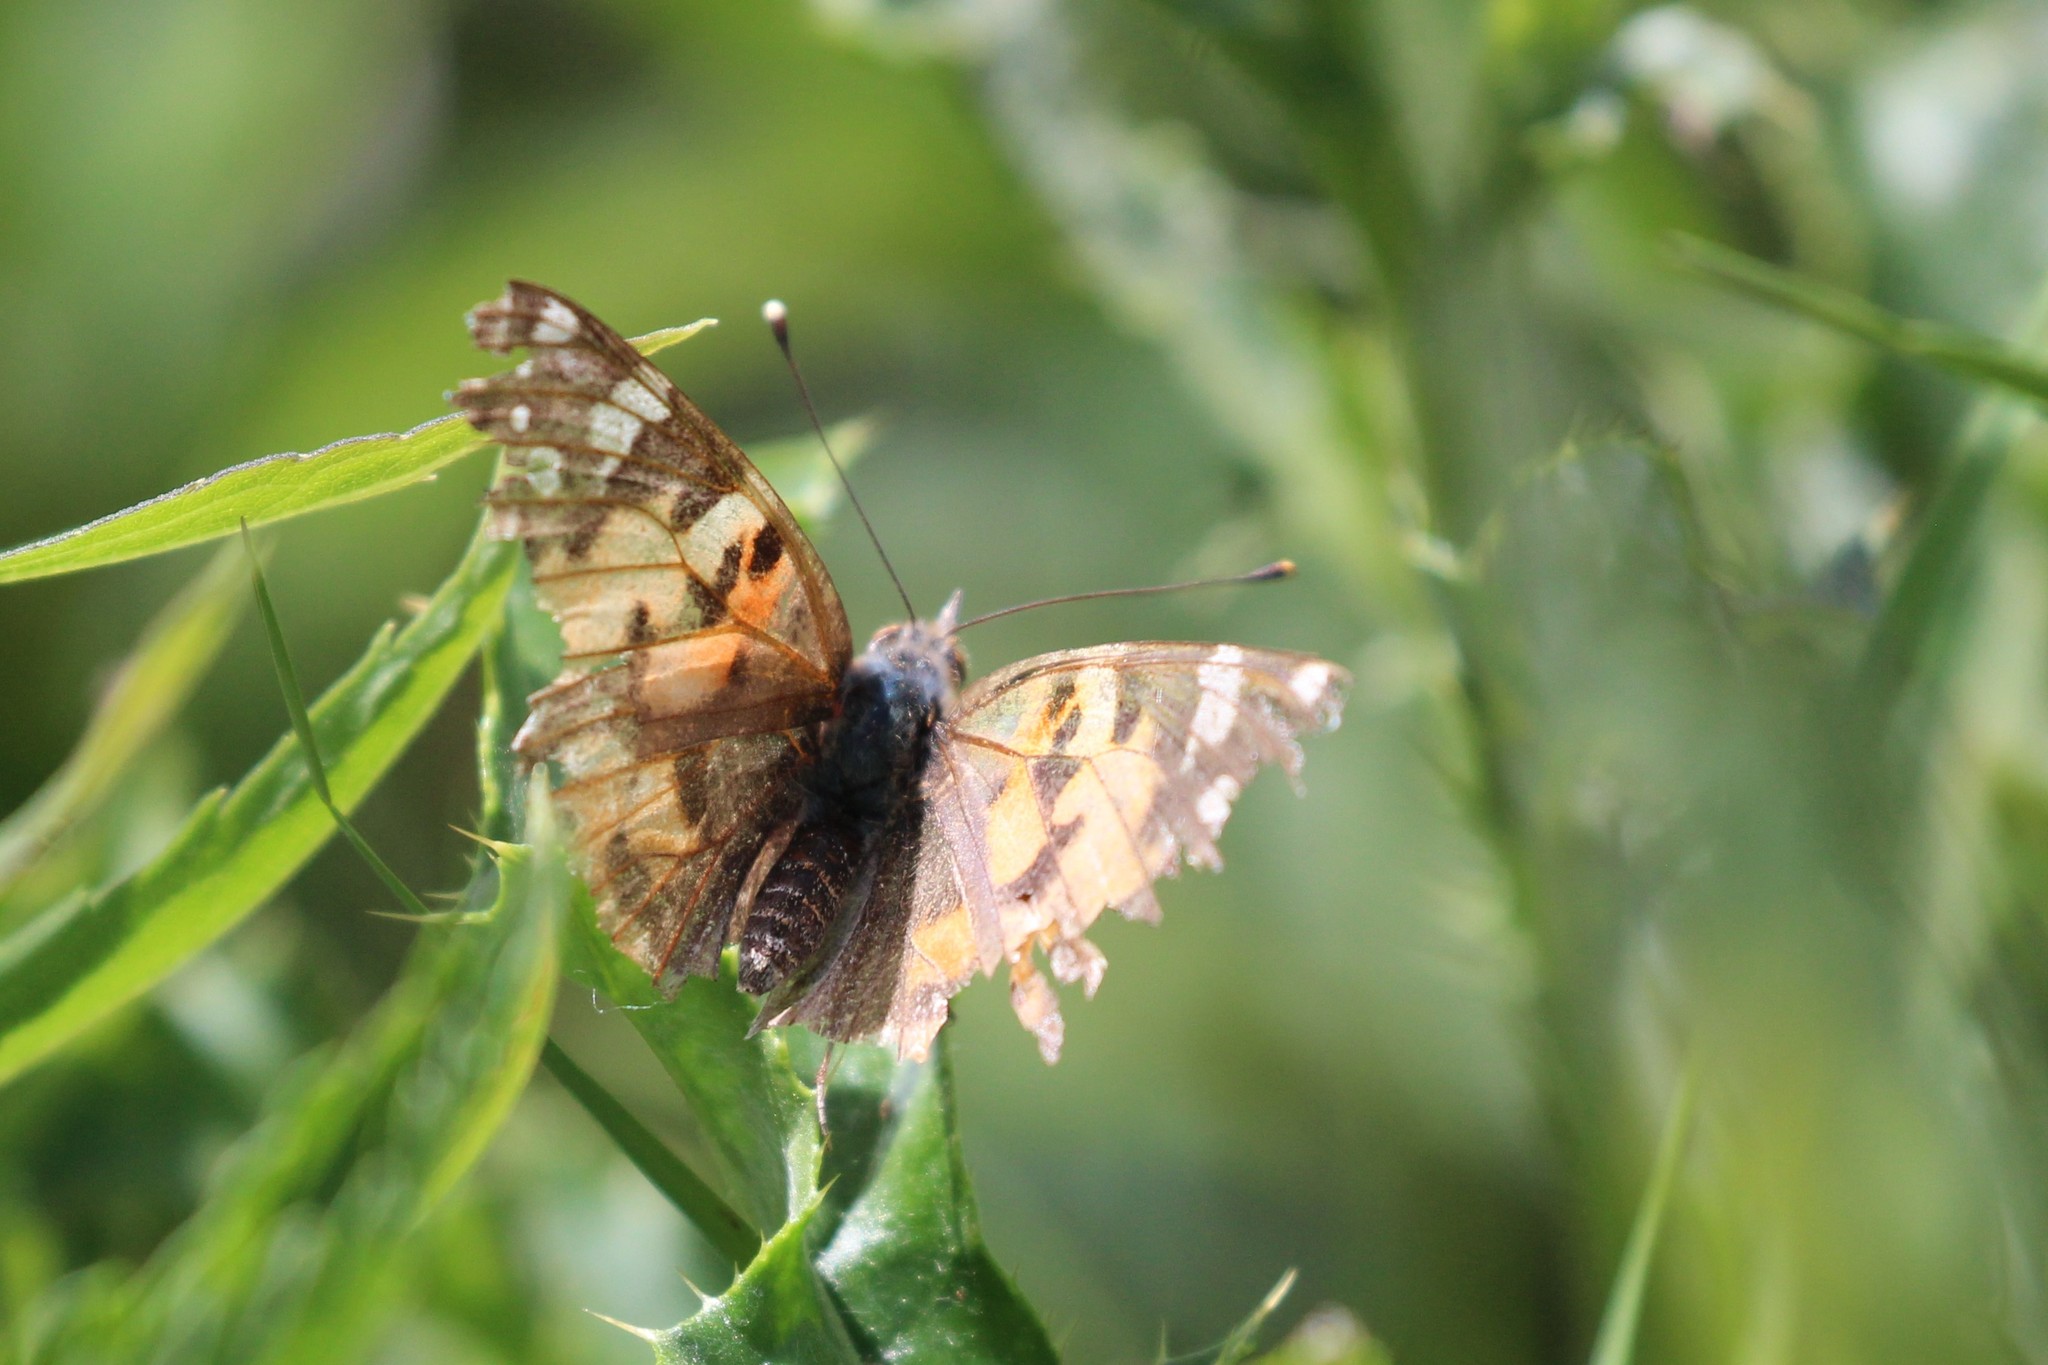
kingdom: Animalia
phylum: Arthropoda
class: Insecta
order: Lepidoptera
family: Nymphalidae
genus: Vanessa
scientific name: Vanessa cardui
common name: Painted lady
